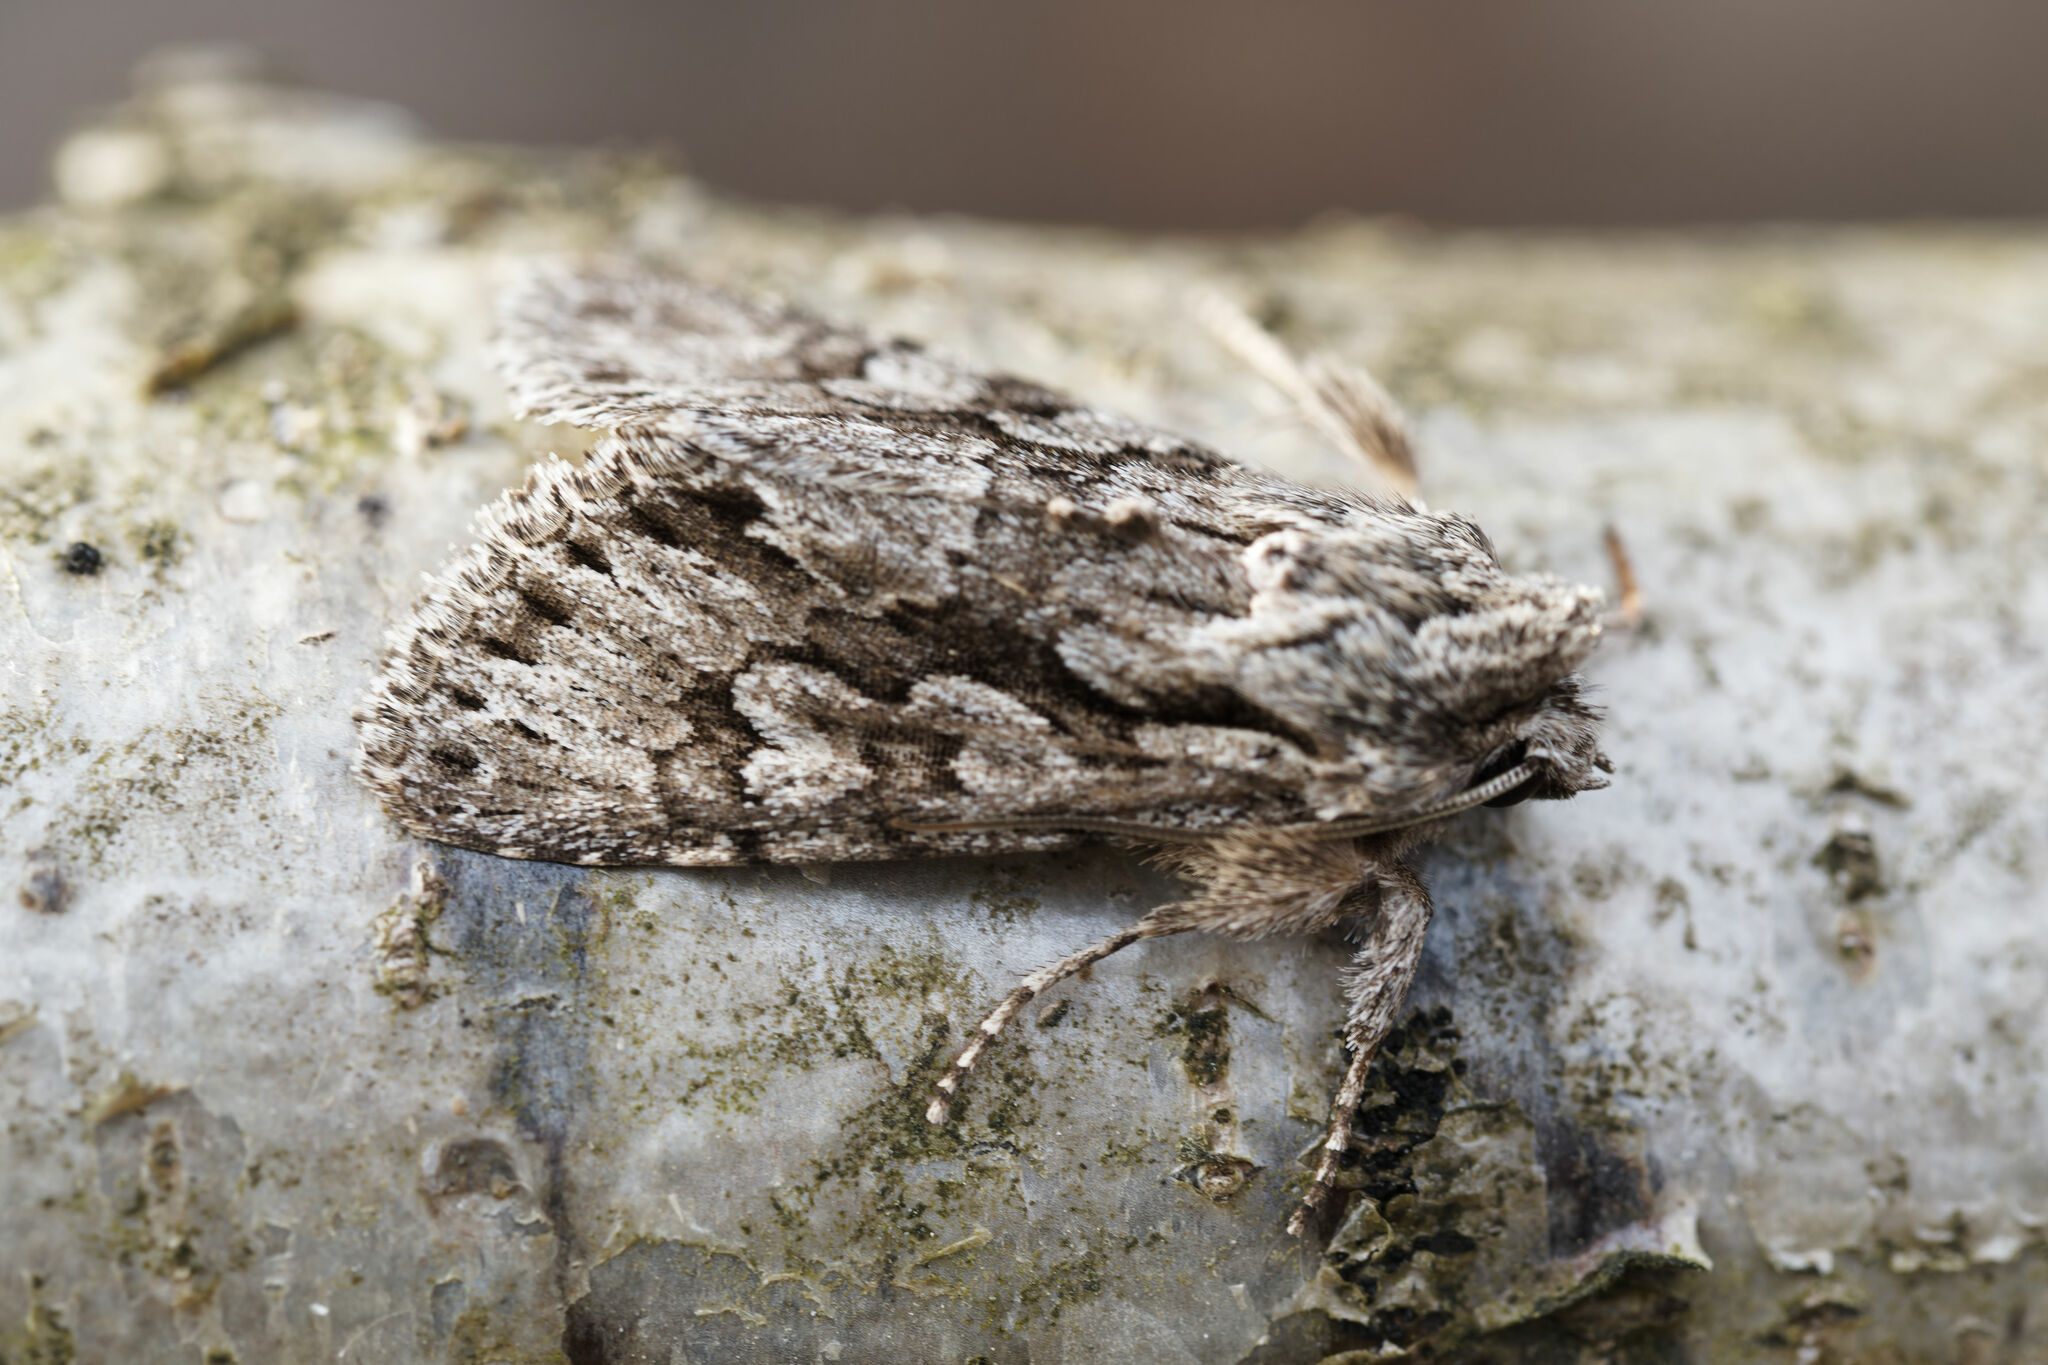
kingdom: Animalia
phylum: Arthropoda
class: Insecta
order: Lepidoptera
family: Noctuidae
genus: Xylocampa
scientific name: Xylocampa areola
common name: Early grey
